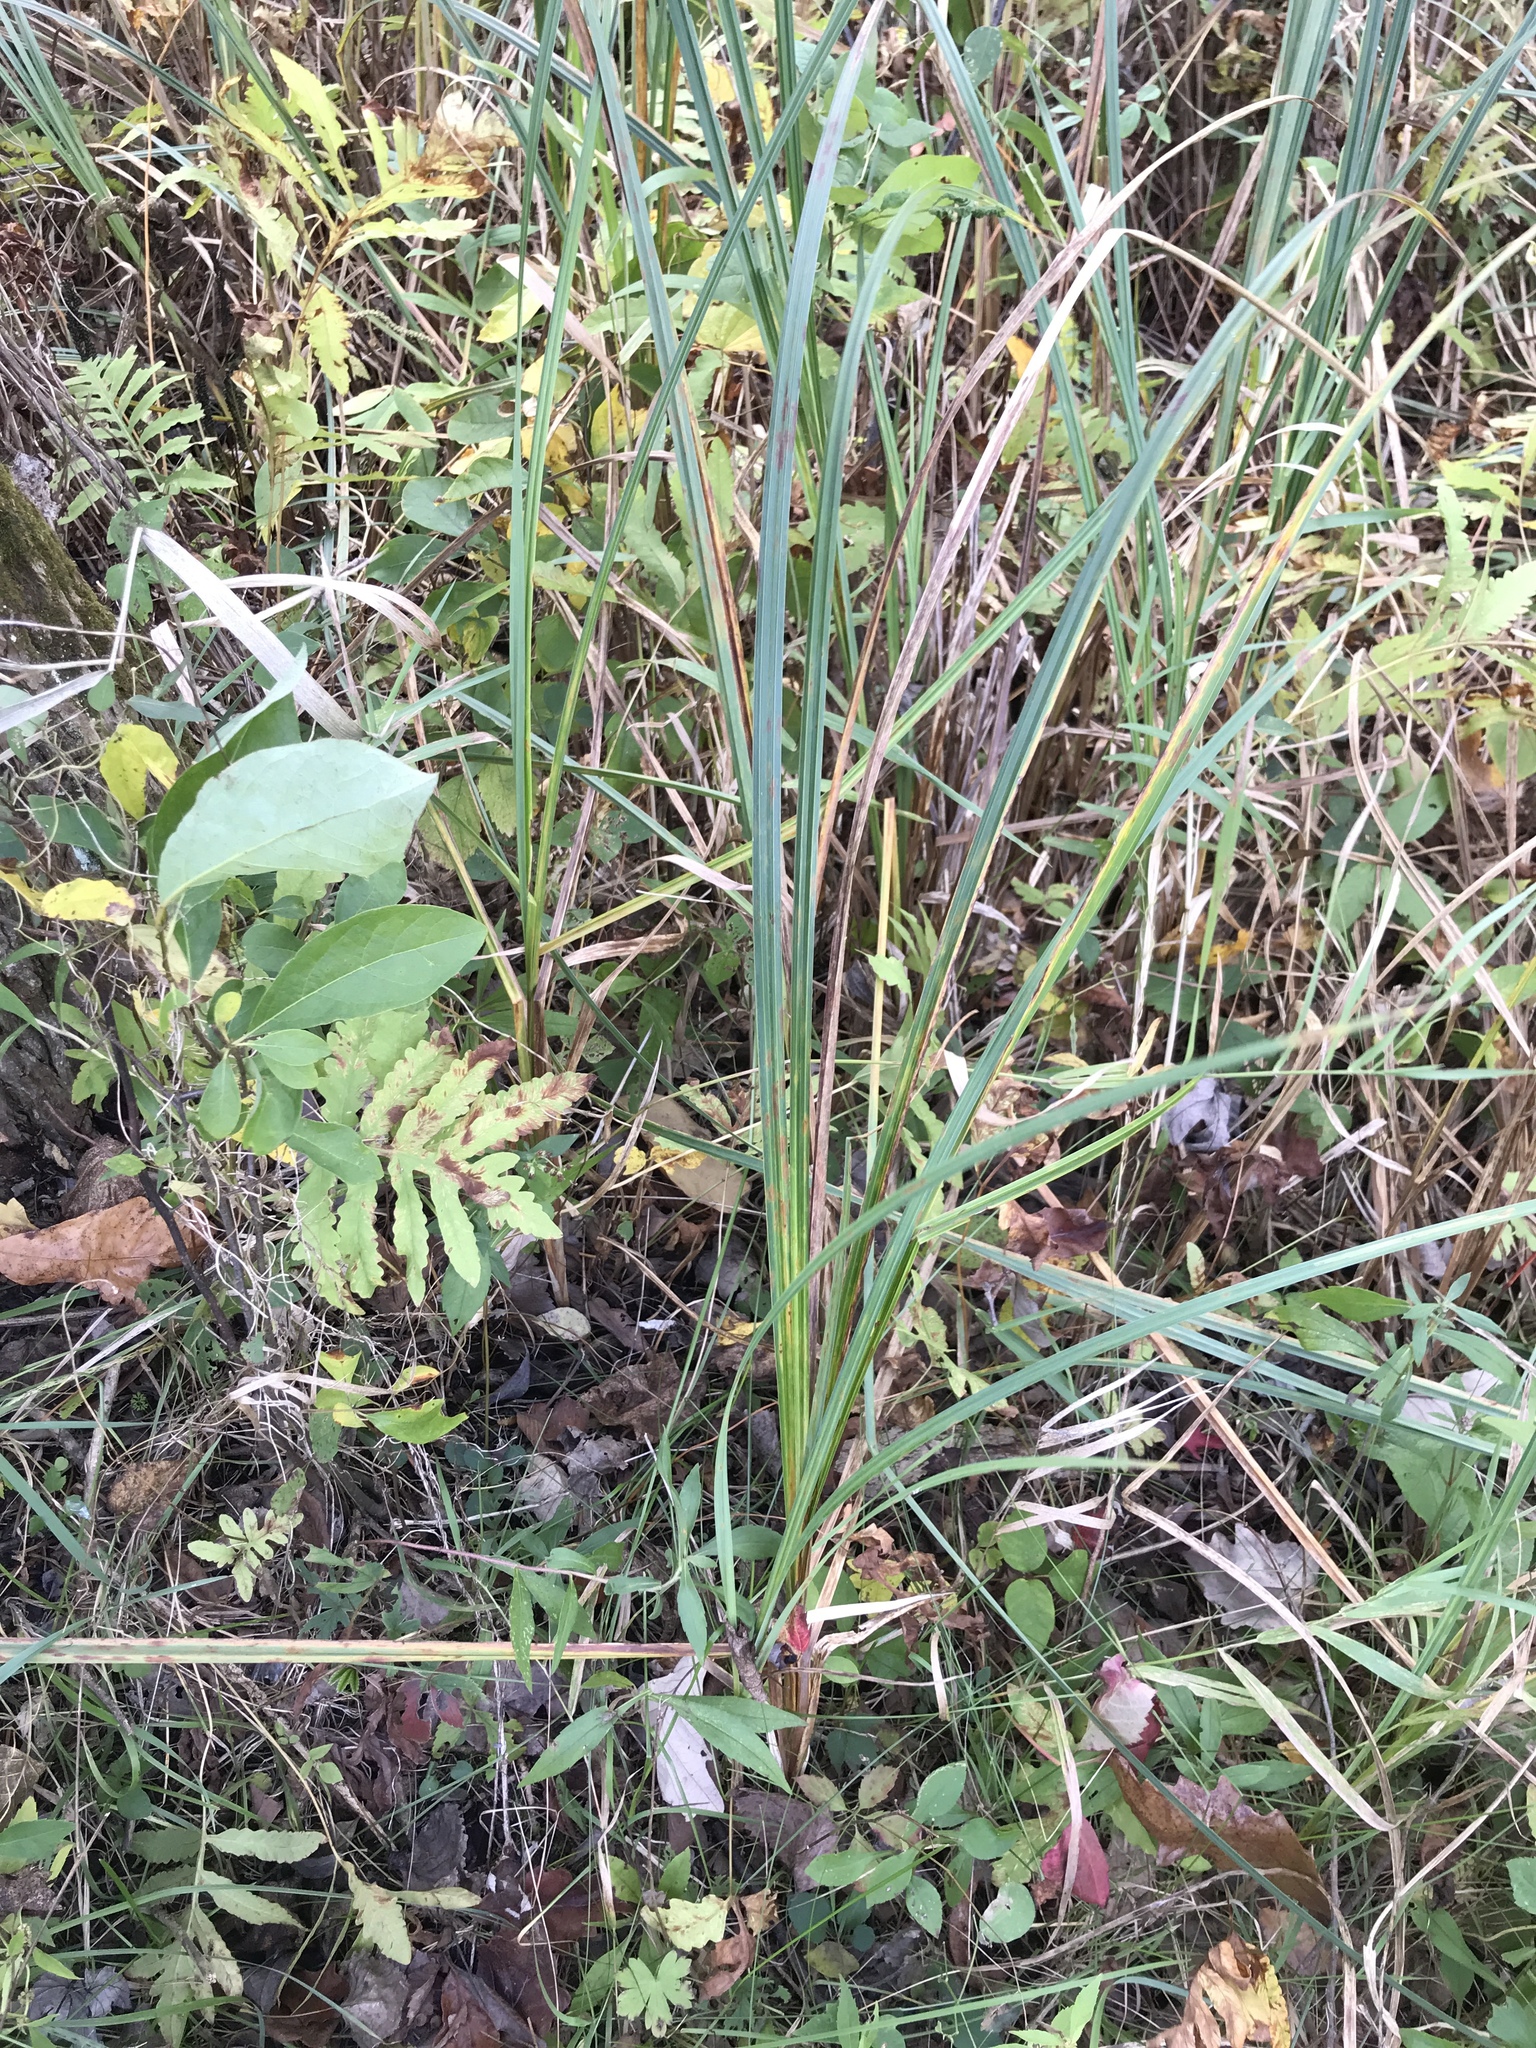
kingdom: Plantae
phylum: Tracheophyta
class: Liliopsida
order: Poales
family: Cyperaceae
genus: Carex
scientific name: Carex lacustris
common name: Common lake sedge
